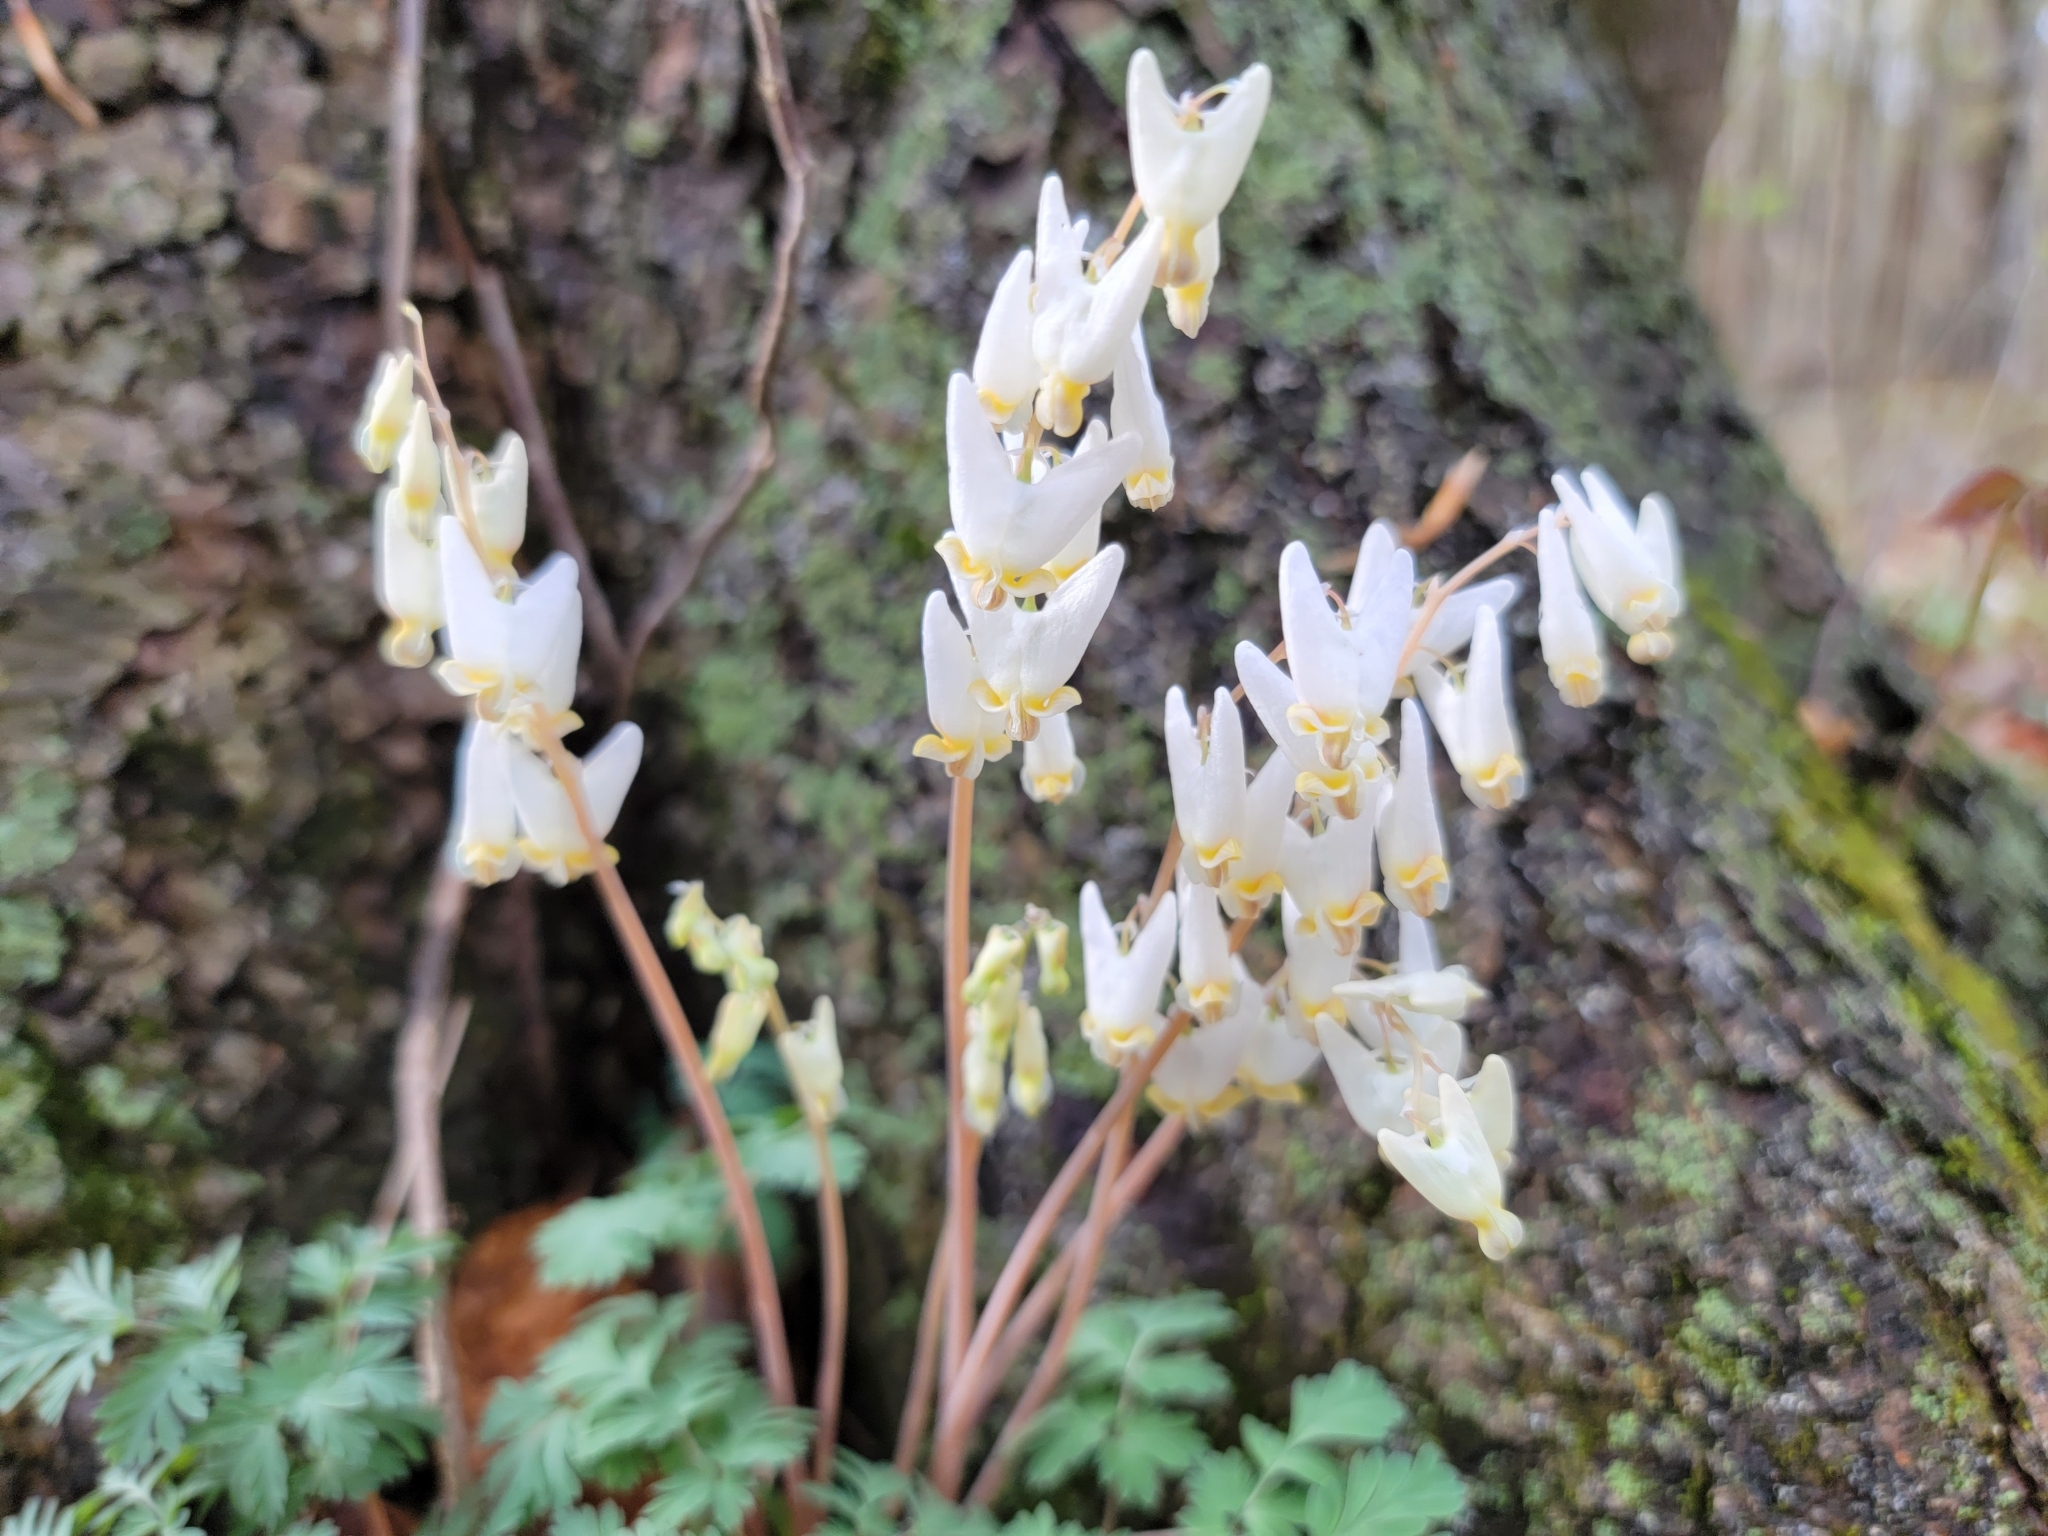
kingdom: Plantae
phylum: Tracheophyta
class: Magnoliopsida
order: Ranunculales
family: Papaveraceae
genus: Dicentra
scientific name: Dicentra cucullaria
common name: Dutchman's breeches
